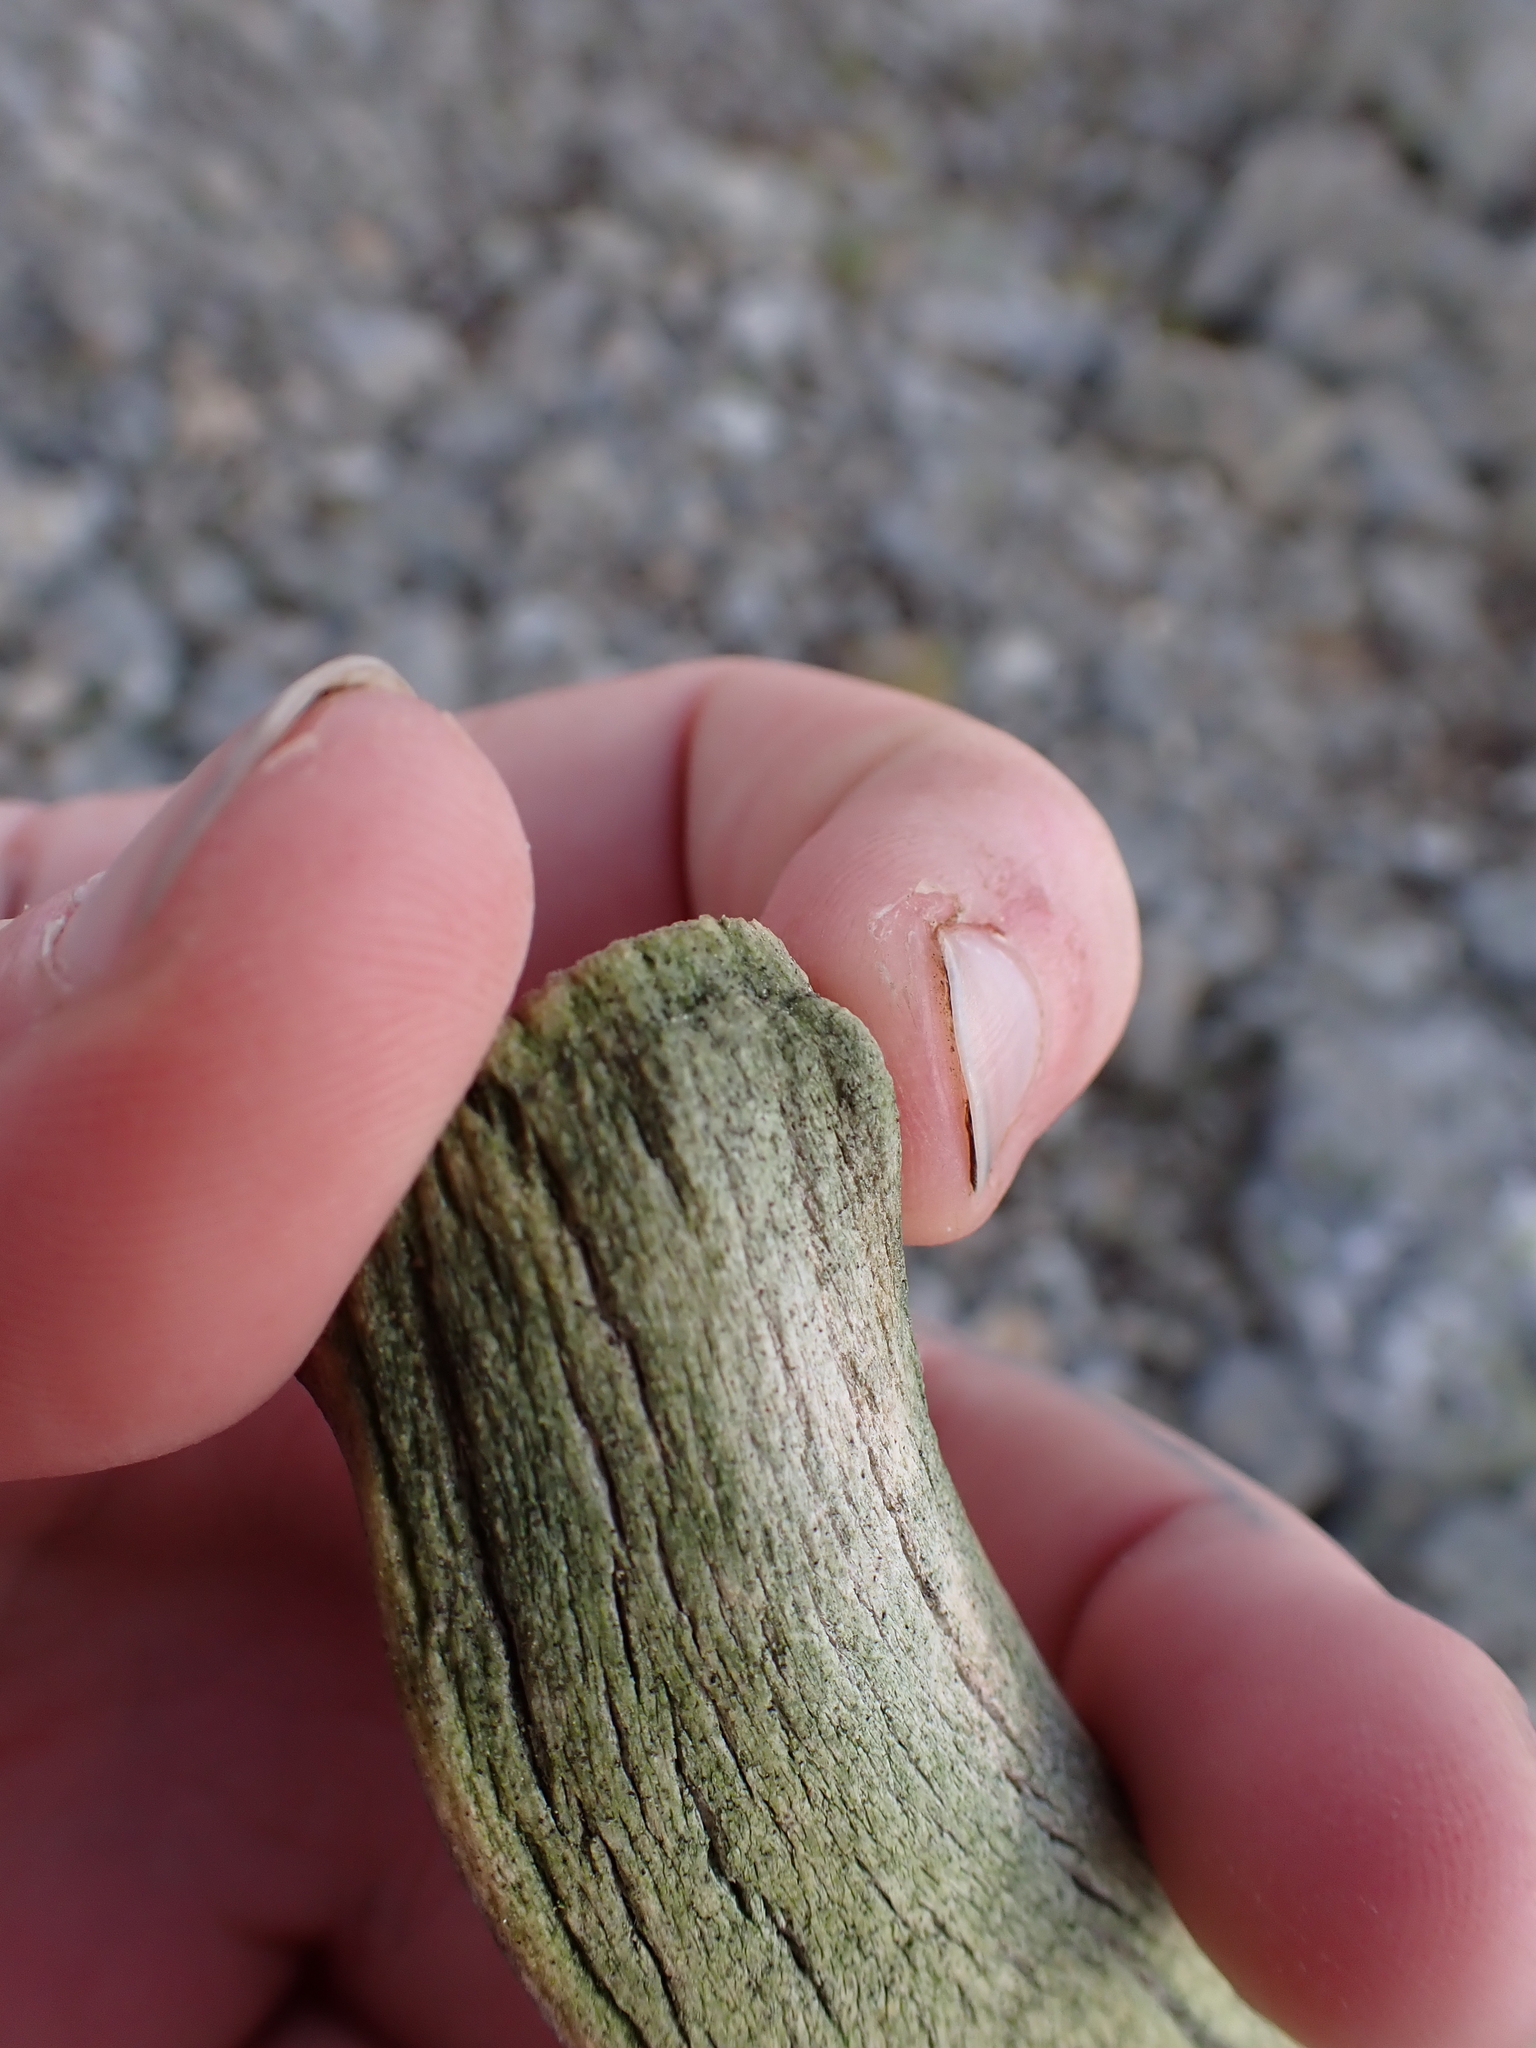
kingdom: Animalia
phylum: Chordata
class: Mammalia
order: Artiodactyla
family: Cervidae
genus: Rangifer
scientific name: Rangifer tarandus
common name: Reindeer
